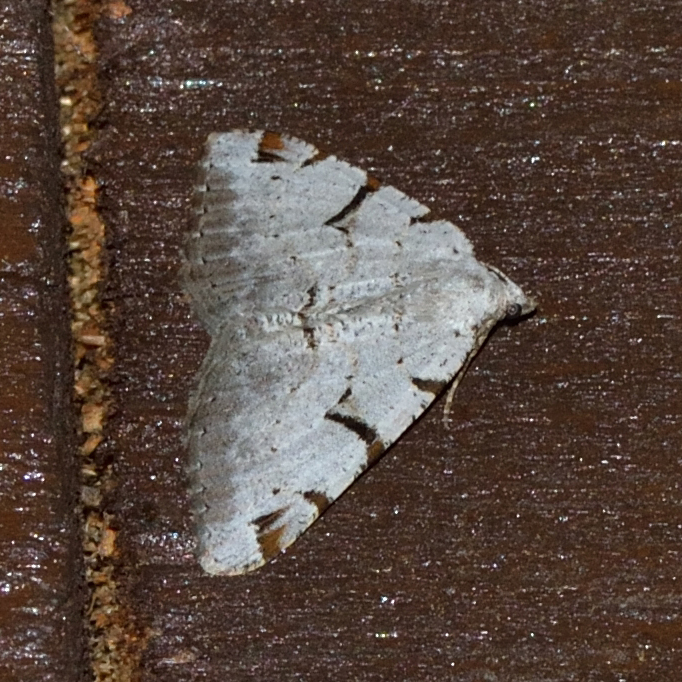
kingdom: Animalia
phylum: Arthropoda
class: Insecta
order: Lepidoptera
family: Geometridae
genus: Macaria
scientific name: Macaria wauaria
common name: V-moth
